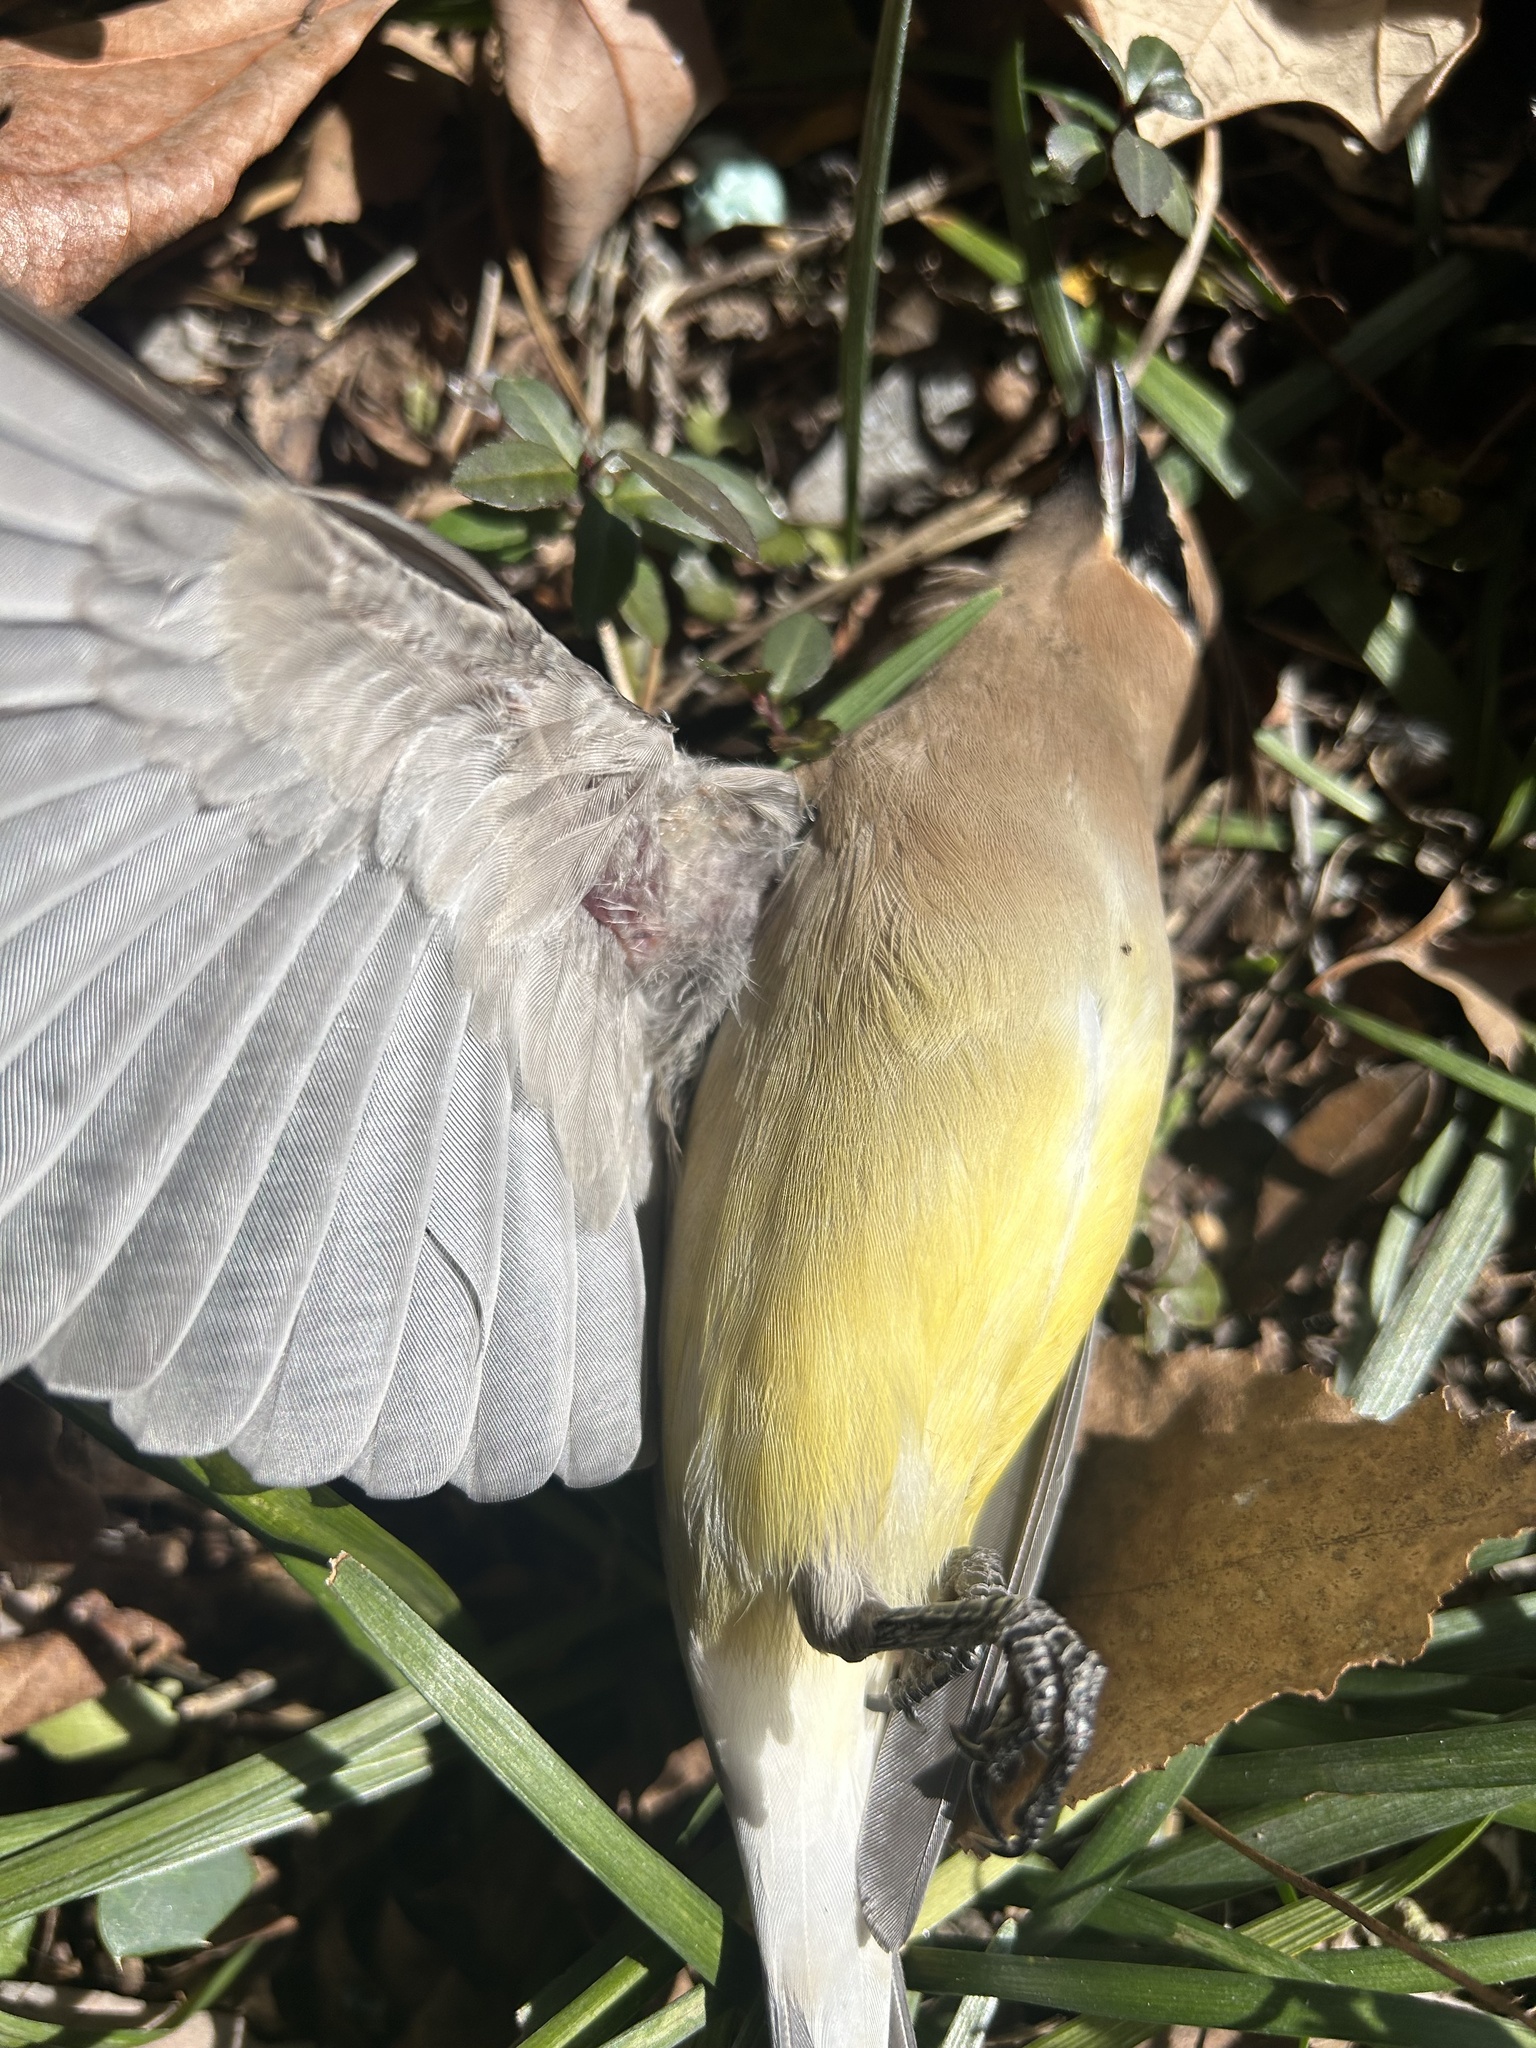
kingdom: Animalia
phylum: Chordata
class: Aves
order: Passeriformes
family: Bombycillidae
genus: Bombycilla
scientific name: Bombycilla cedrorum
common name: Cedar waxwing
